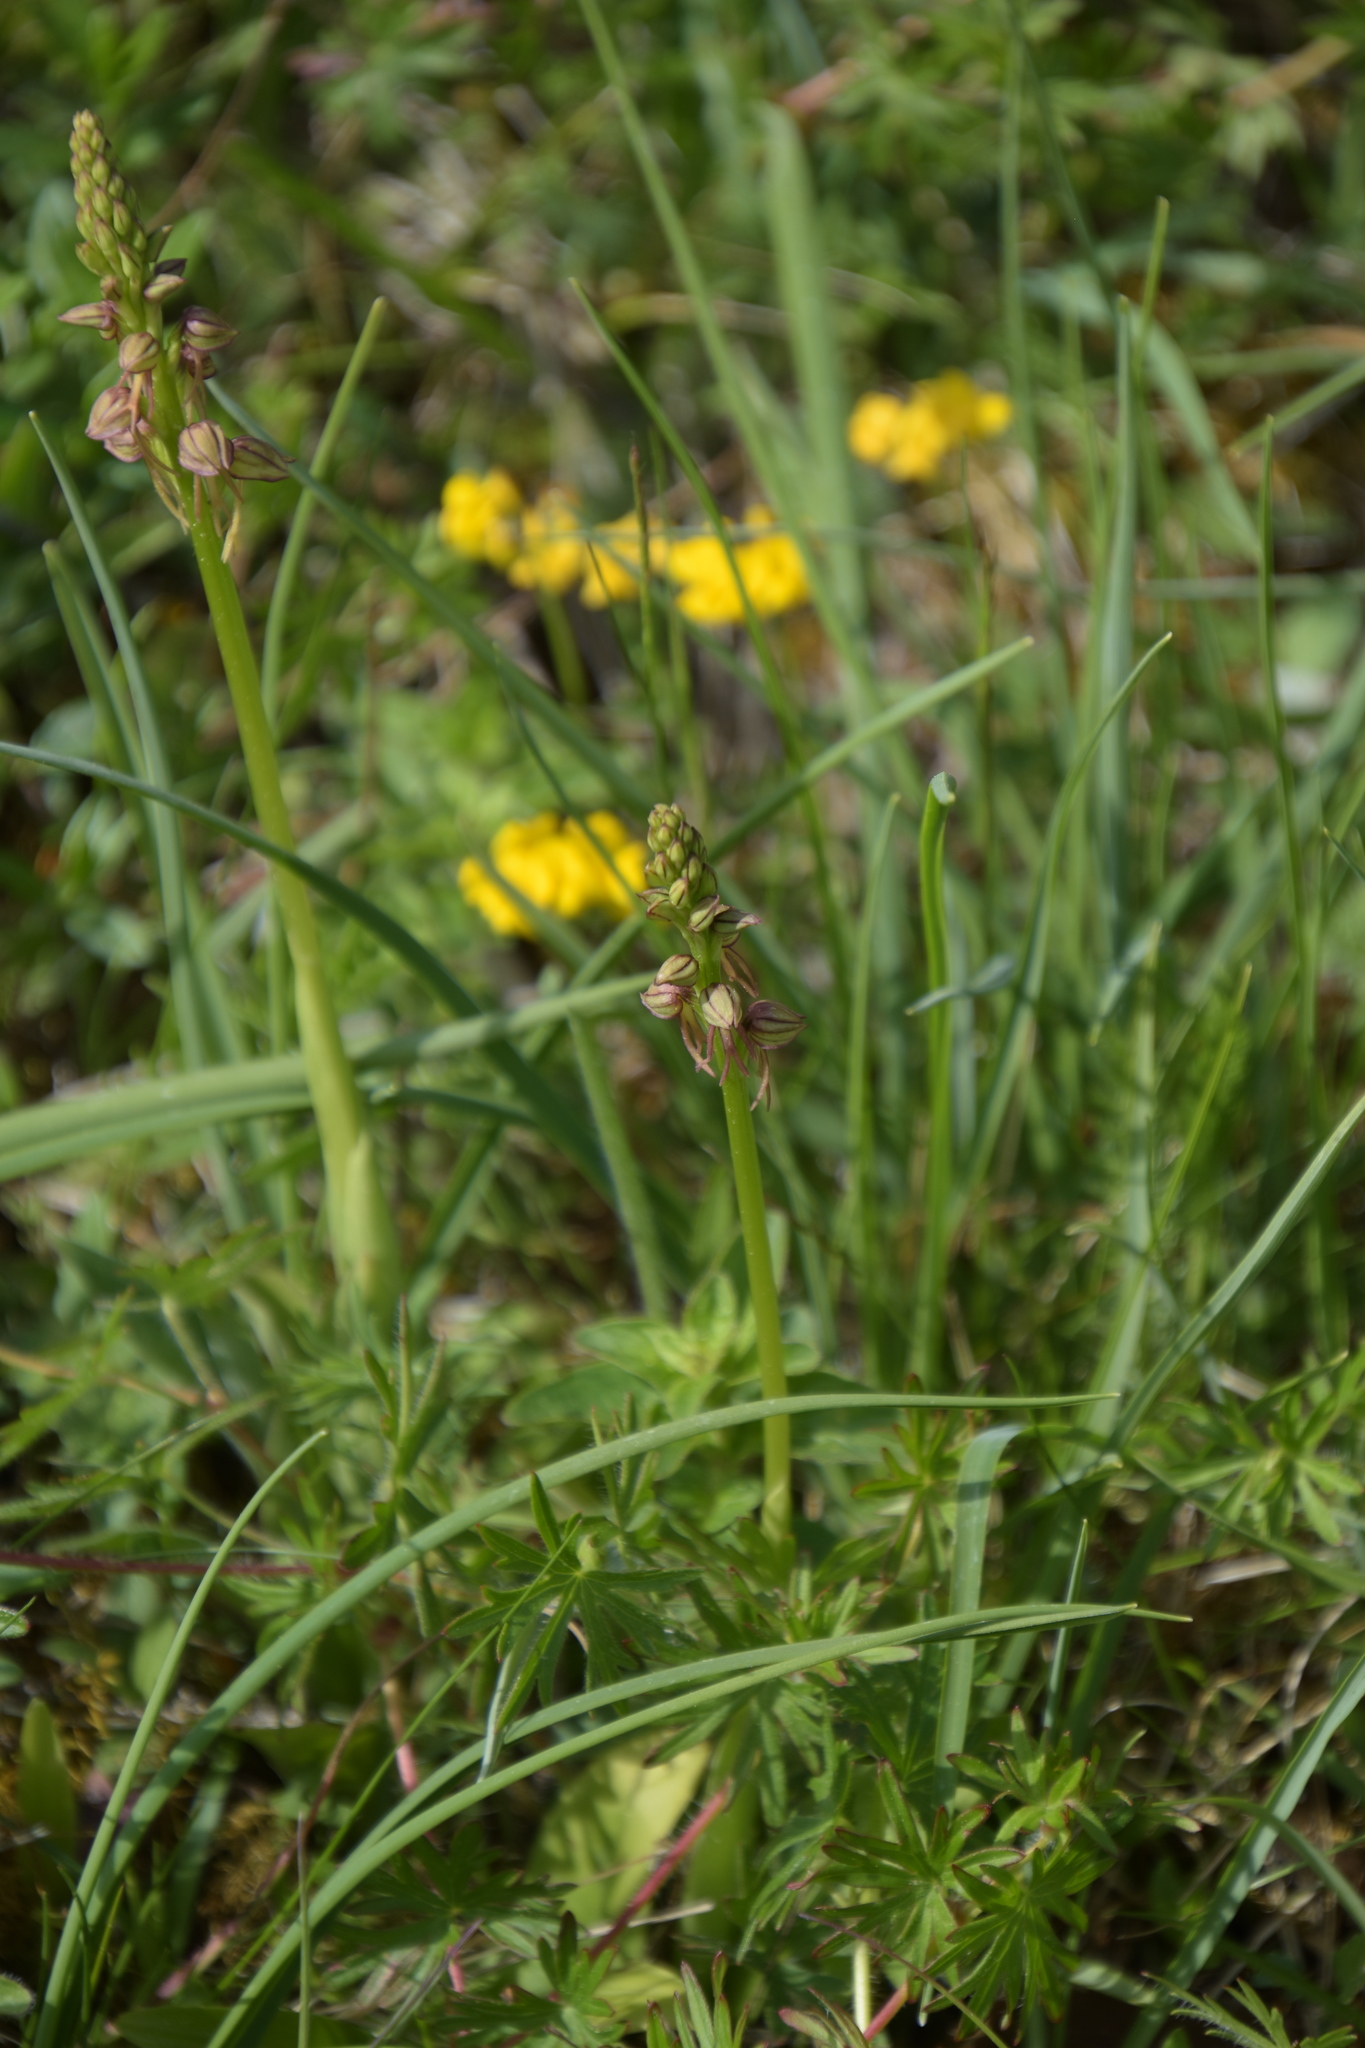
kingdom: Plantae
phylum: Tracheophyta
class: Liliopsida
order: Asparagales
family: Orchidaceae
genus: Orchis
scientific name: Orchis anthropophora
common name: Man orchid
